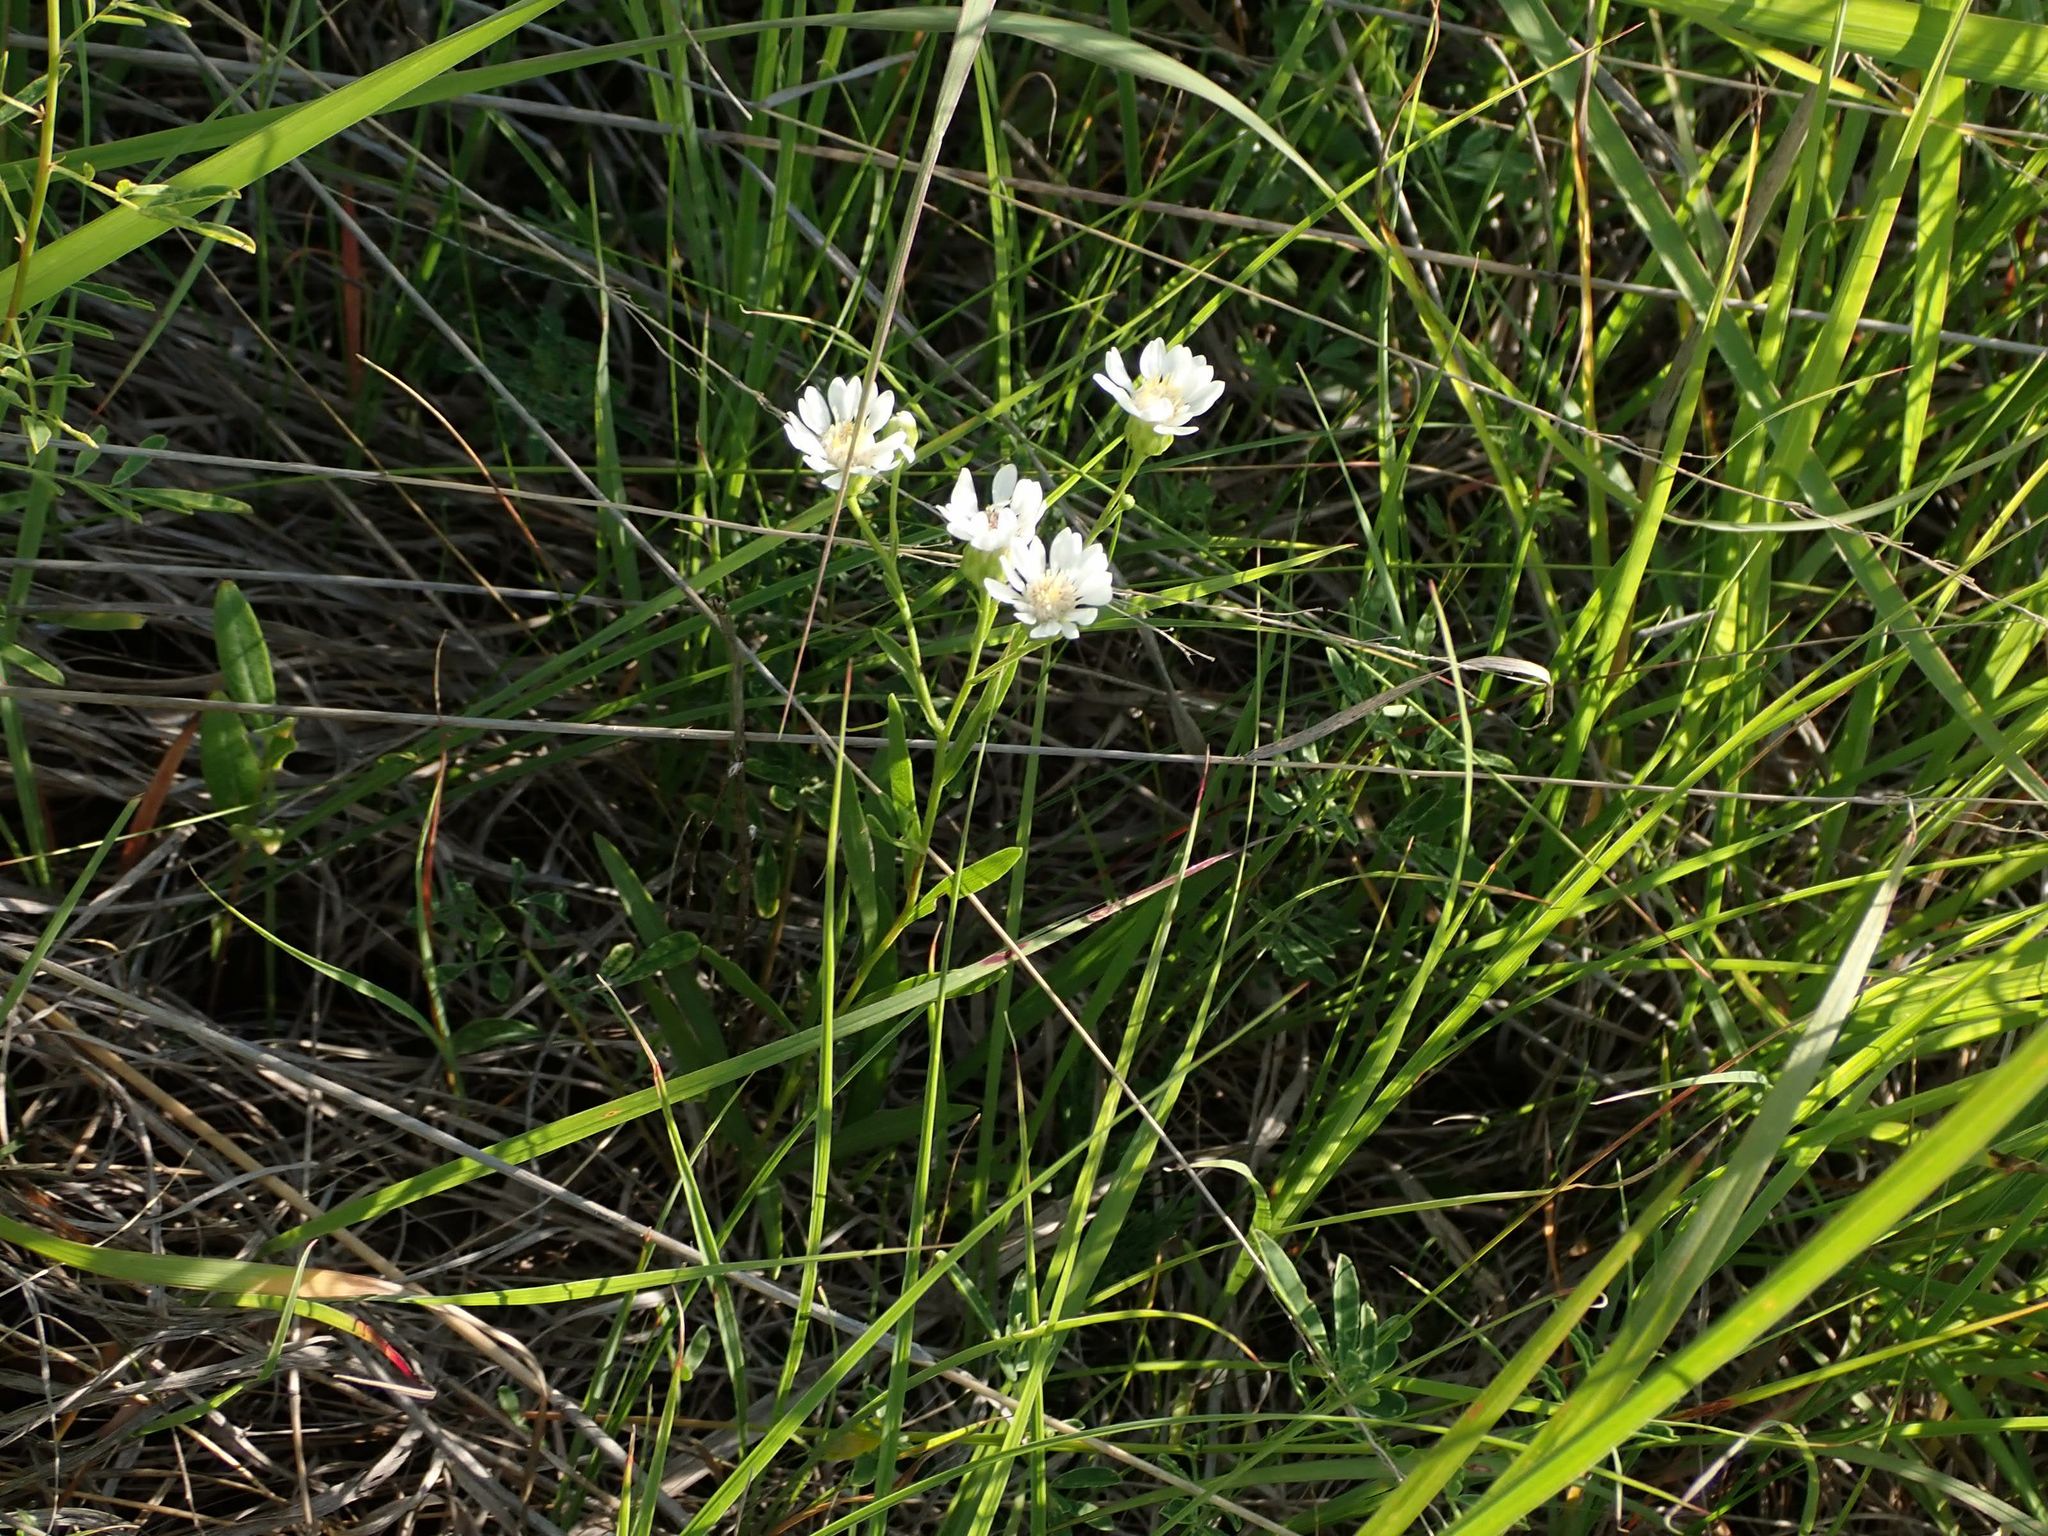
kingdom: Plantae
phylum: Tracheophyta
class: Magnoliopsida
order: Asterales
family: Asteraceae
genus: Solidago
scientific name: Solidago ptarmicoides
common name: White flat-top goldenrod
